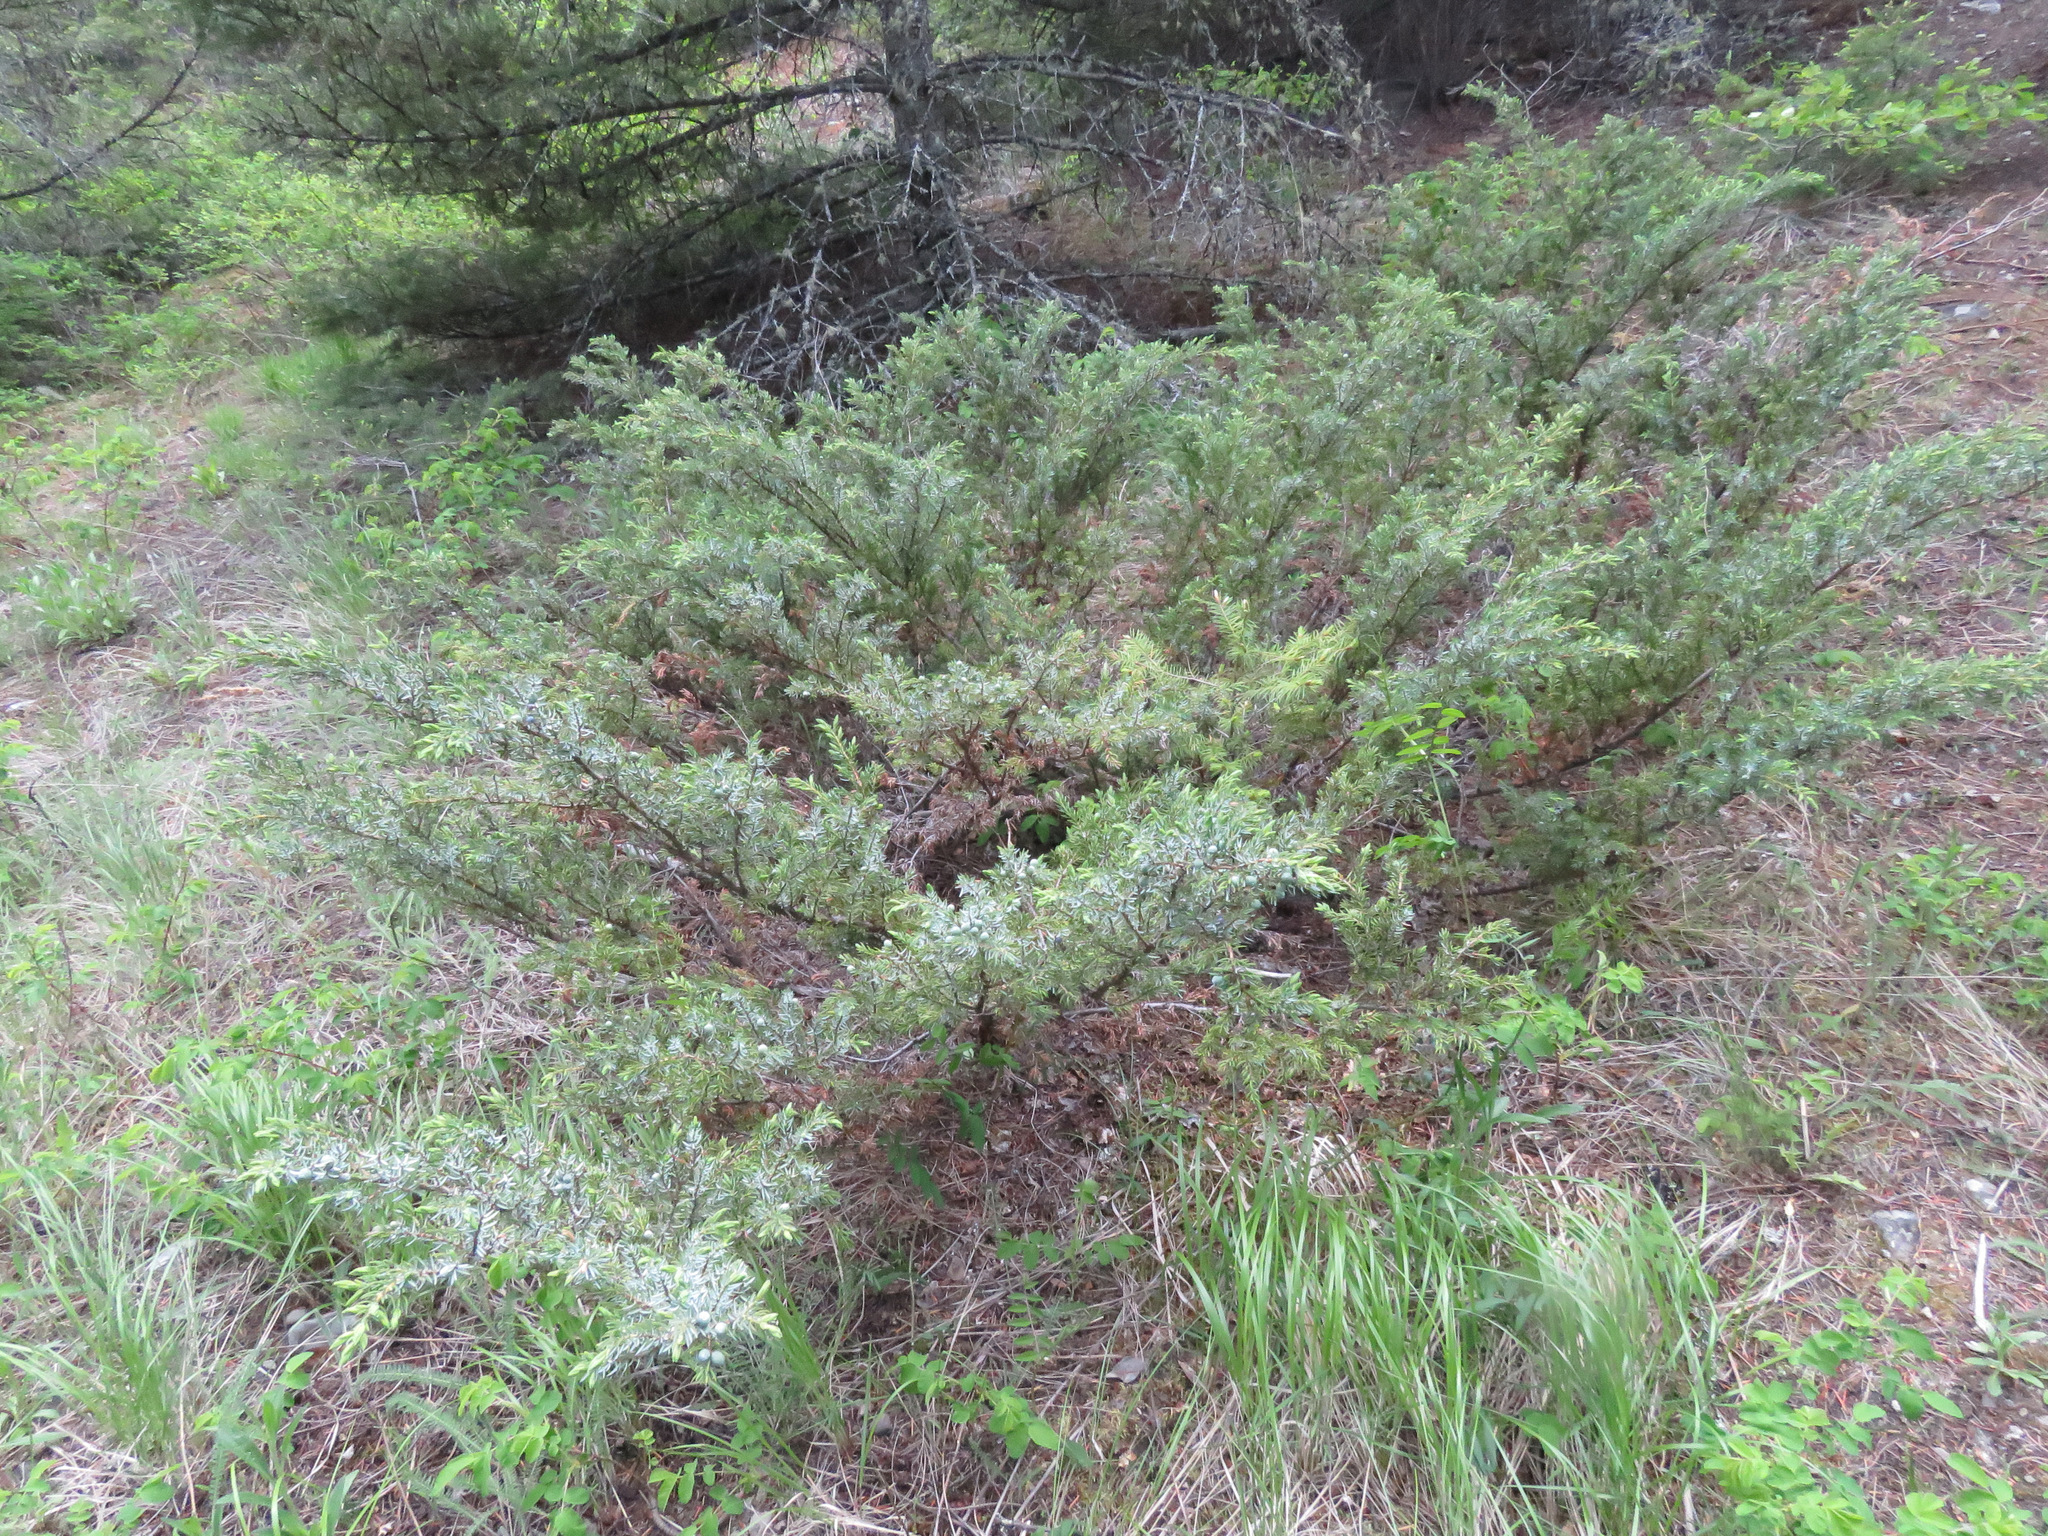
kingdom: Plantae
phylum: Tracheophyta
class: Pinopsida
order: Pinales
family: Cupressaceae
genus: Juniperus
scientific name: Juniperus communis
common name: Common juniper
